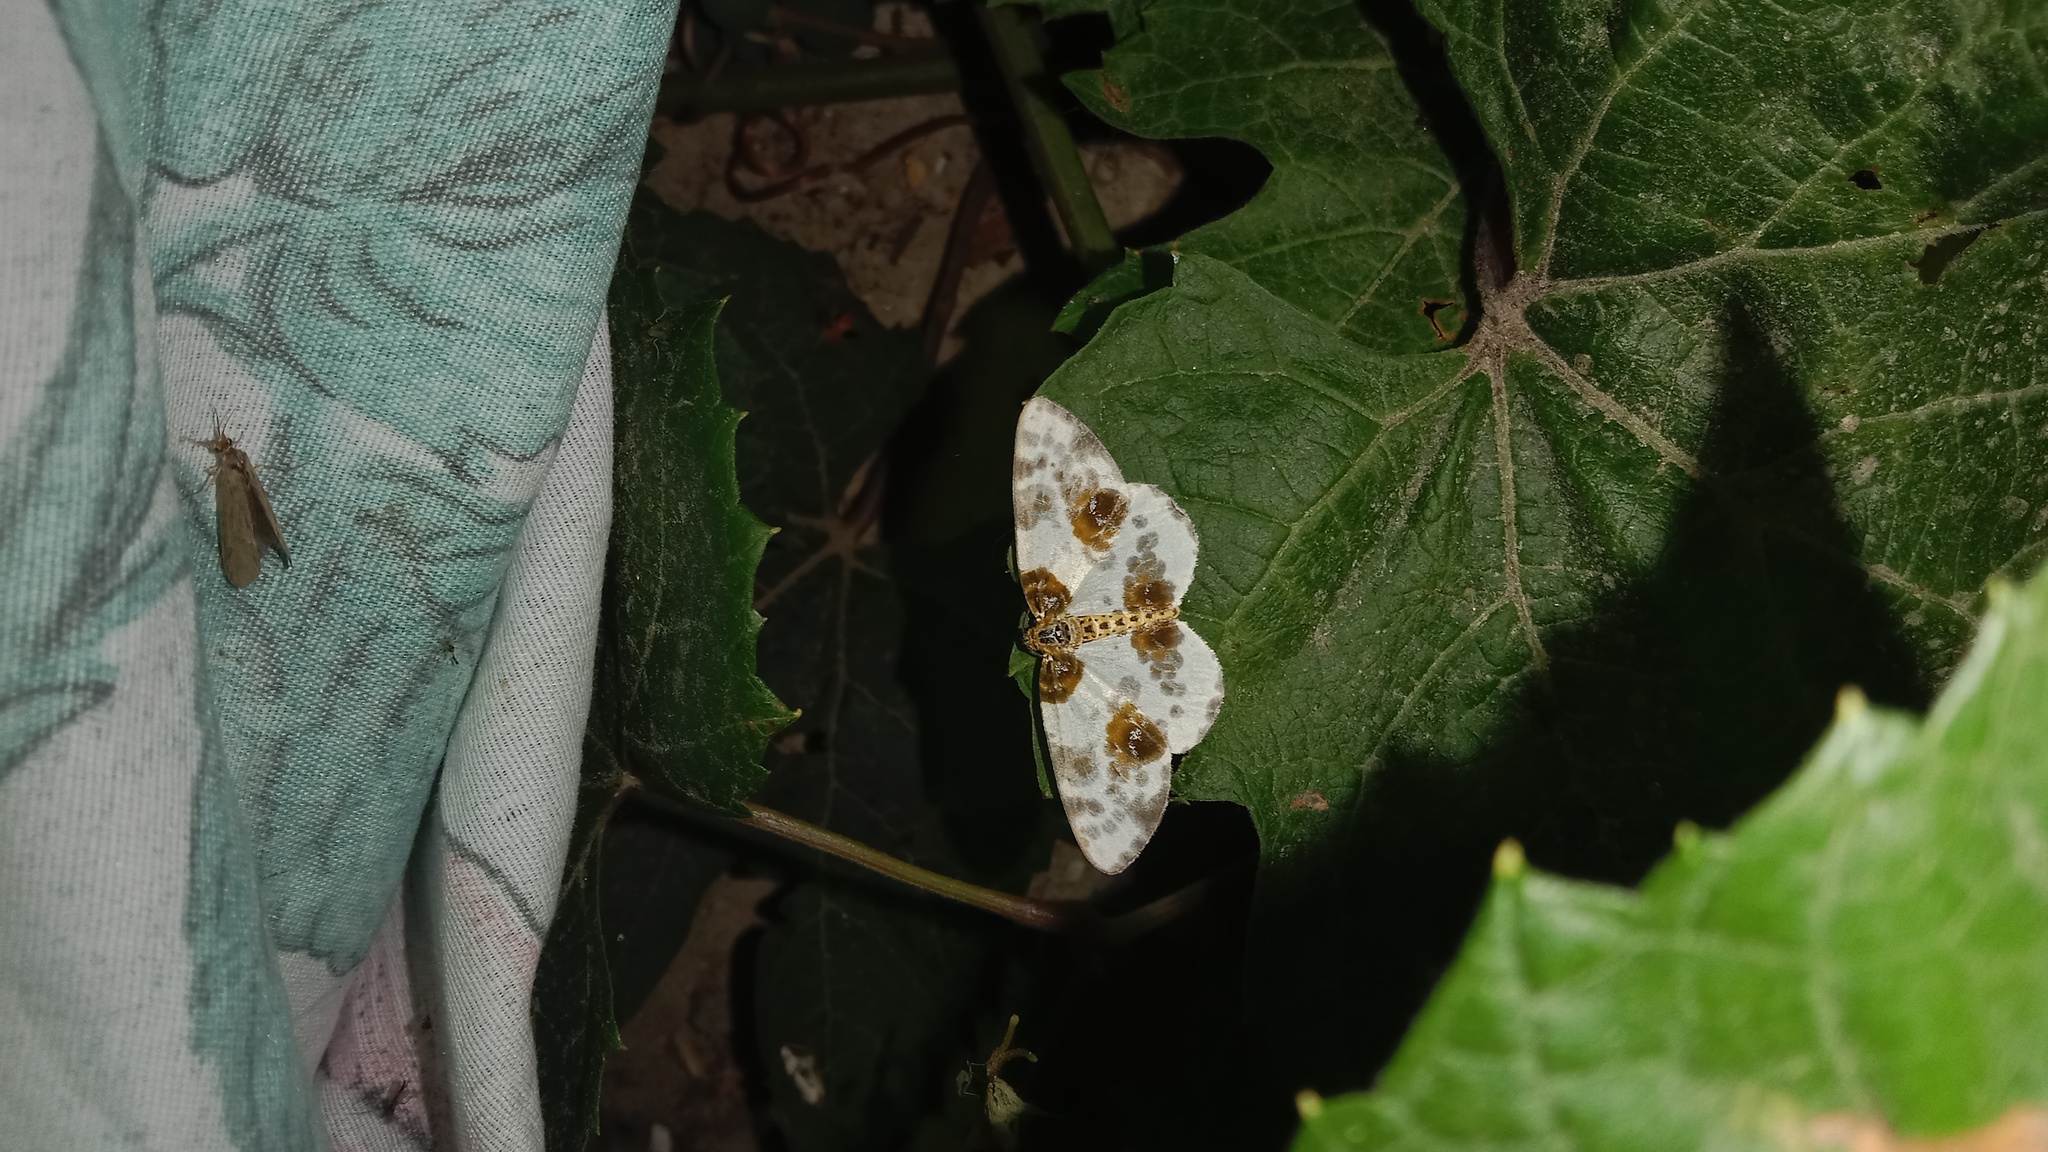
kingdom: Animalia
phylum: Arthropoda
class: Insecta
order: Lepidoptera
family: Geometridae
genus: Abraxas
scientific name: Abraxas sylvata
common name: Clouded magpie
